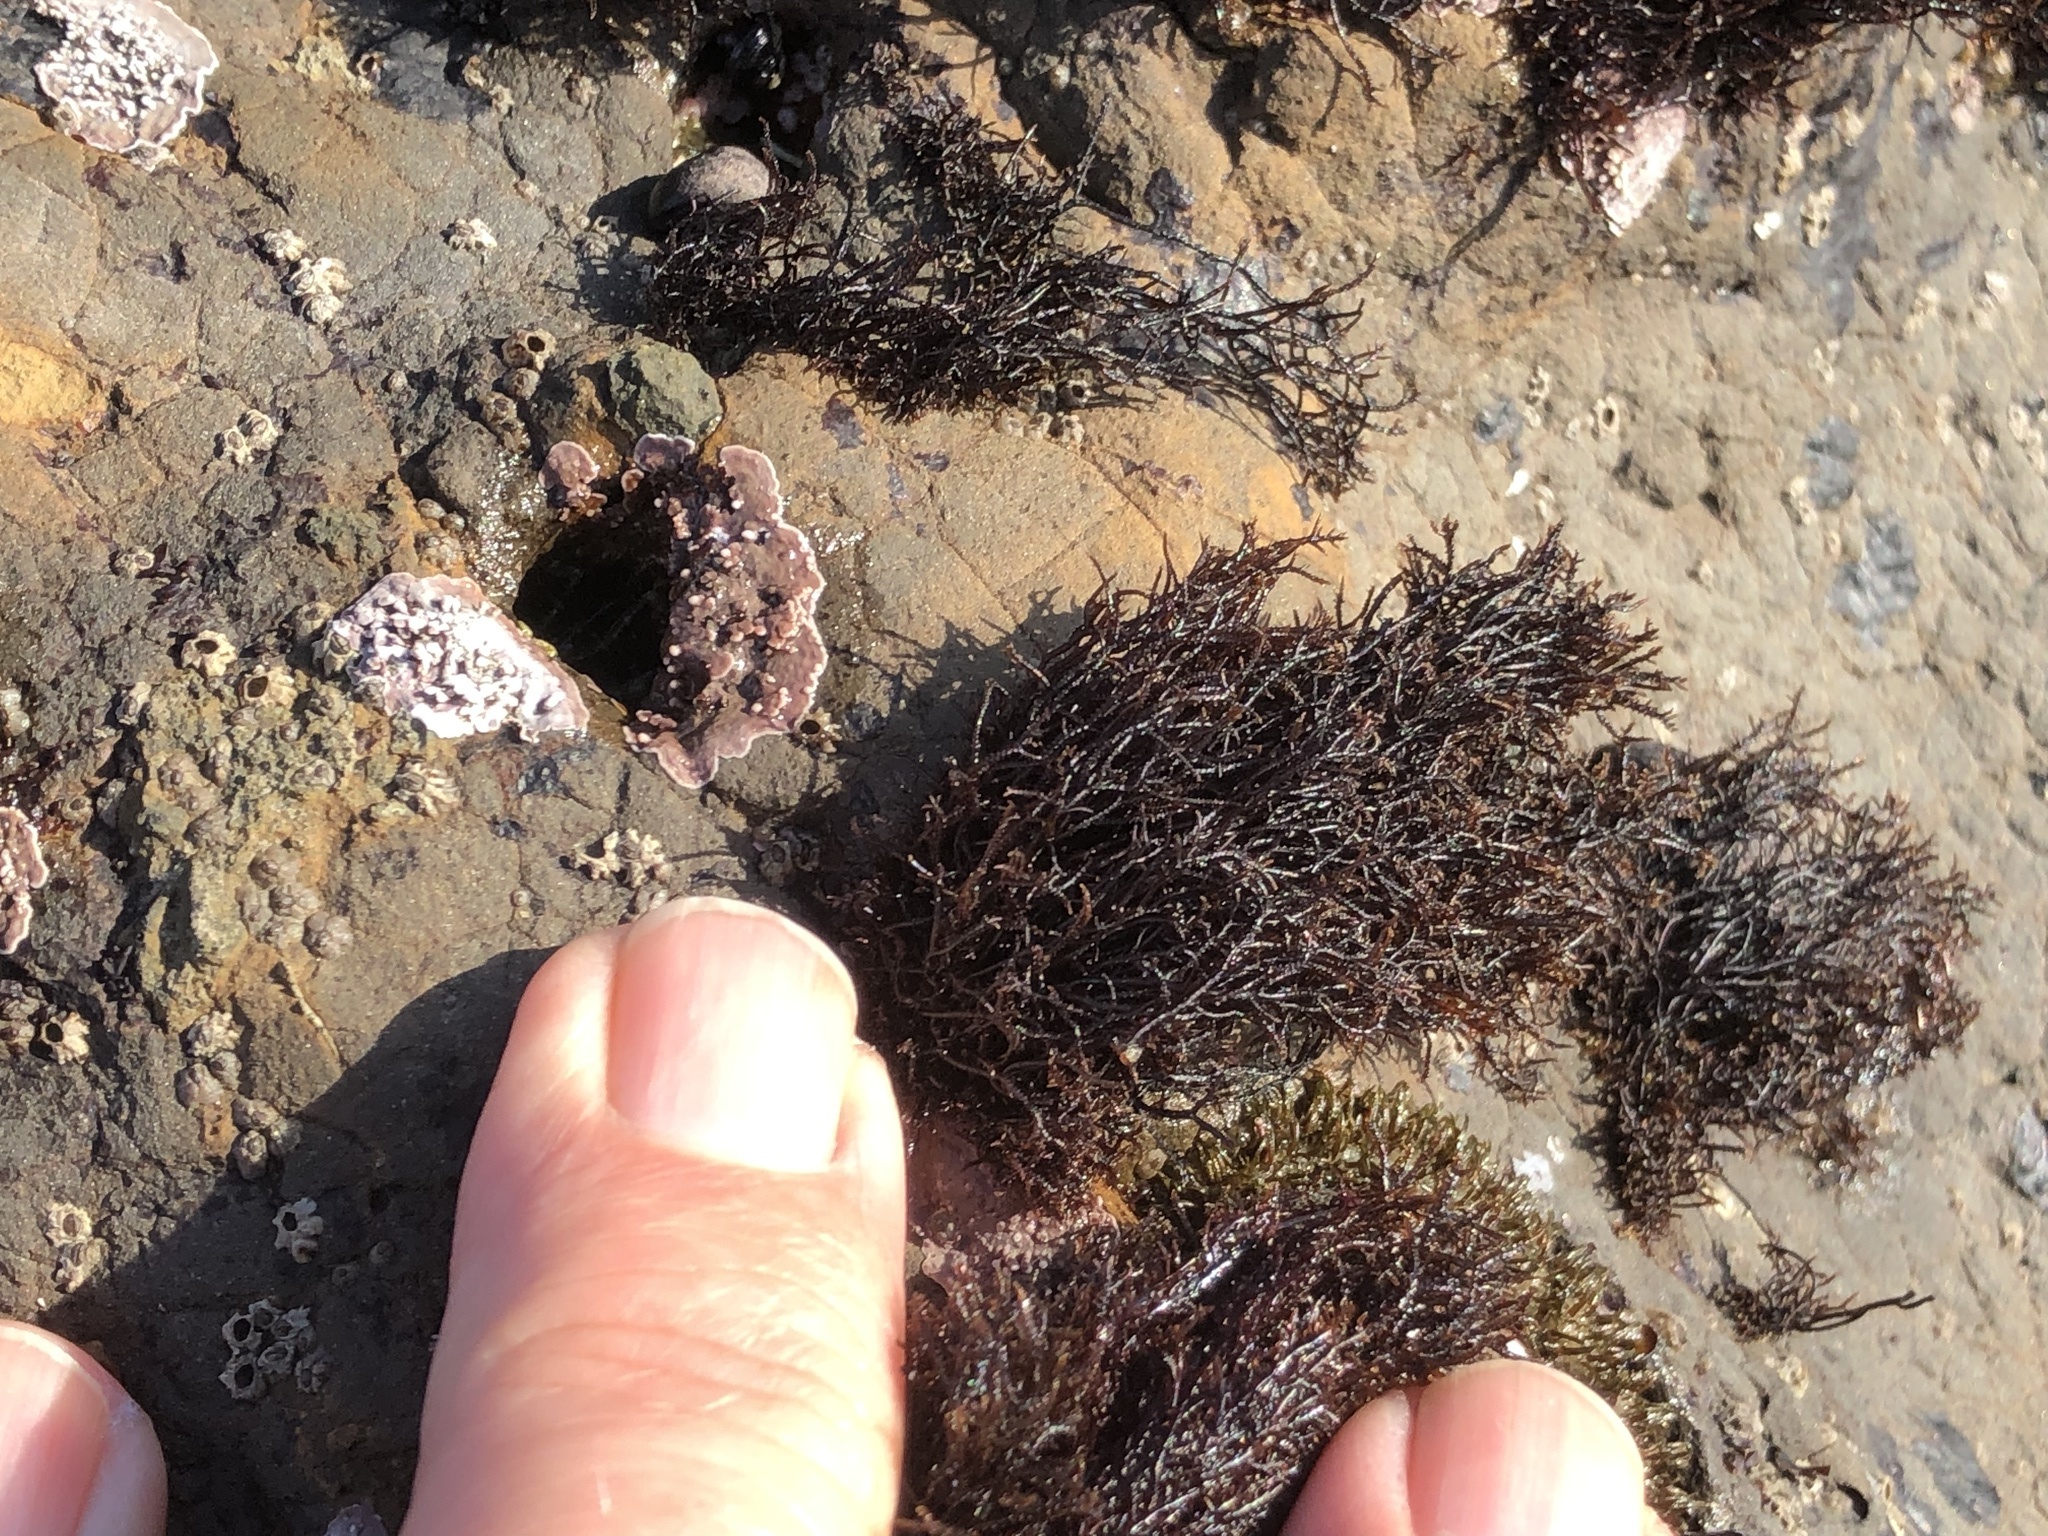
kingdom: Plantae
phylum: Rhodophyta
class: Florideophyceae
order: Gigartinales
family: Endocladiaceae
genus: Endocladia
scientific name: Endocladia muricata
